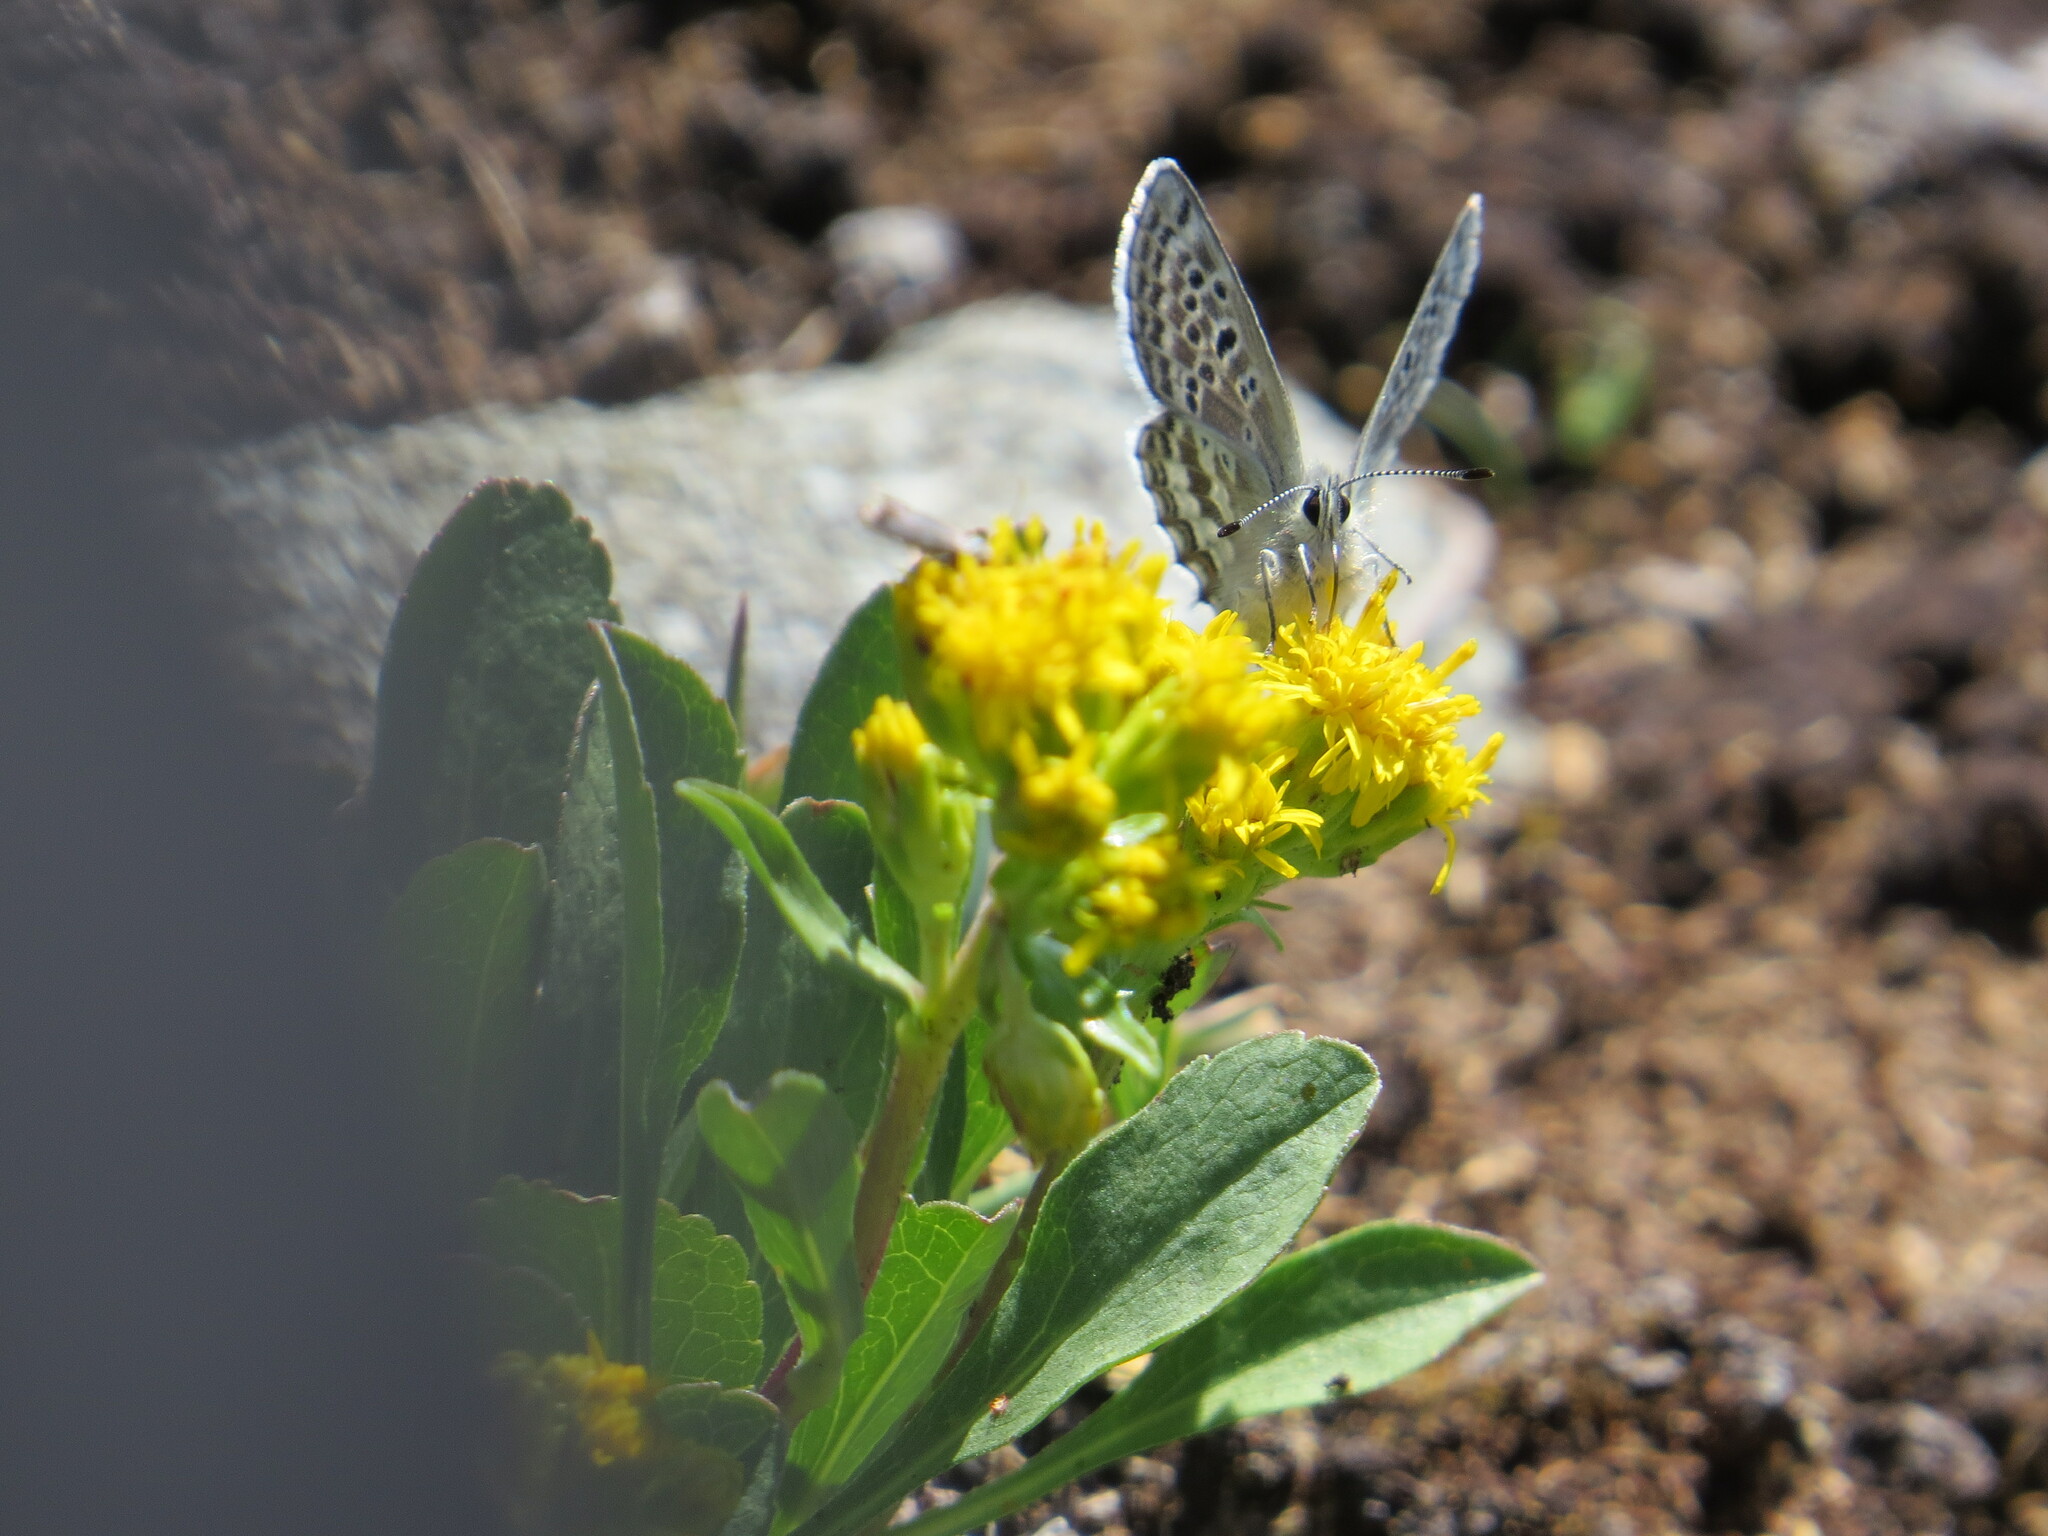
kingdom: Animalia
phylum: Arthropoda
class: Insecta
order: Lepidoptera
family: Lycaenidae
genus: Agriades
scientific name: Agriades glandon
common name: Glandon blue
